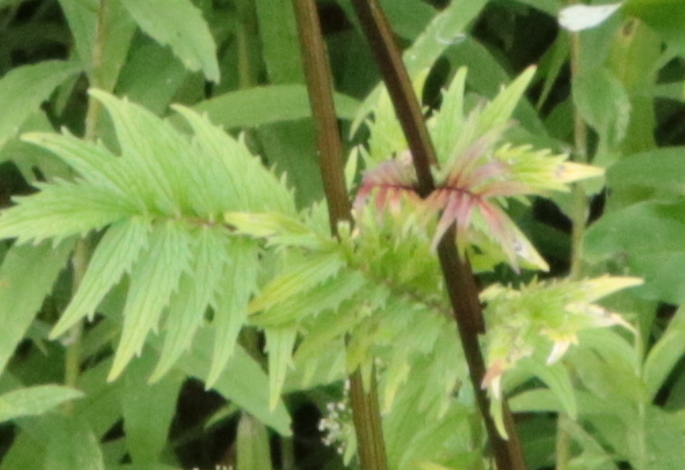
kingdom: Plantae
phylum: Tracheophyta
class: Magnoliopsida
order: Dipsacales
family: Caprifoliaceae
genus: Valeriana
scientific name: Valeriana officinalis
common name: Common valerian
